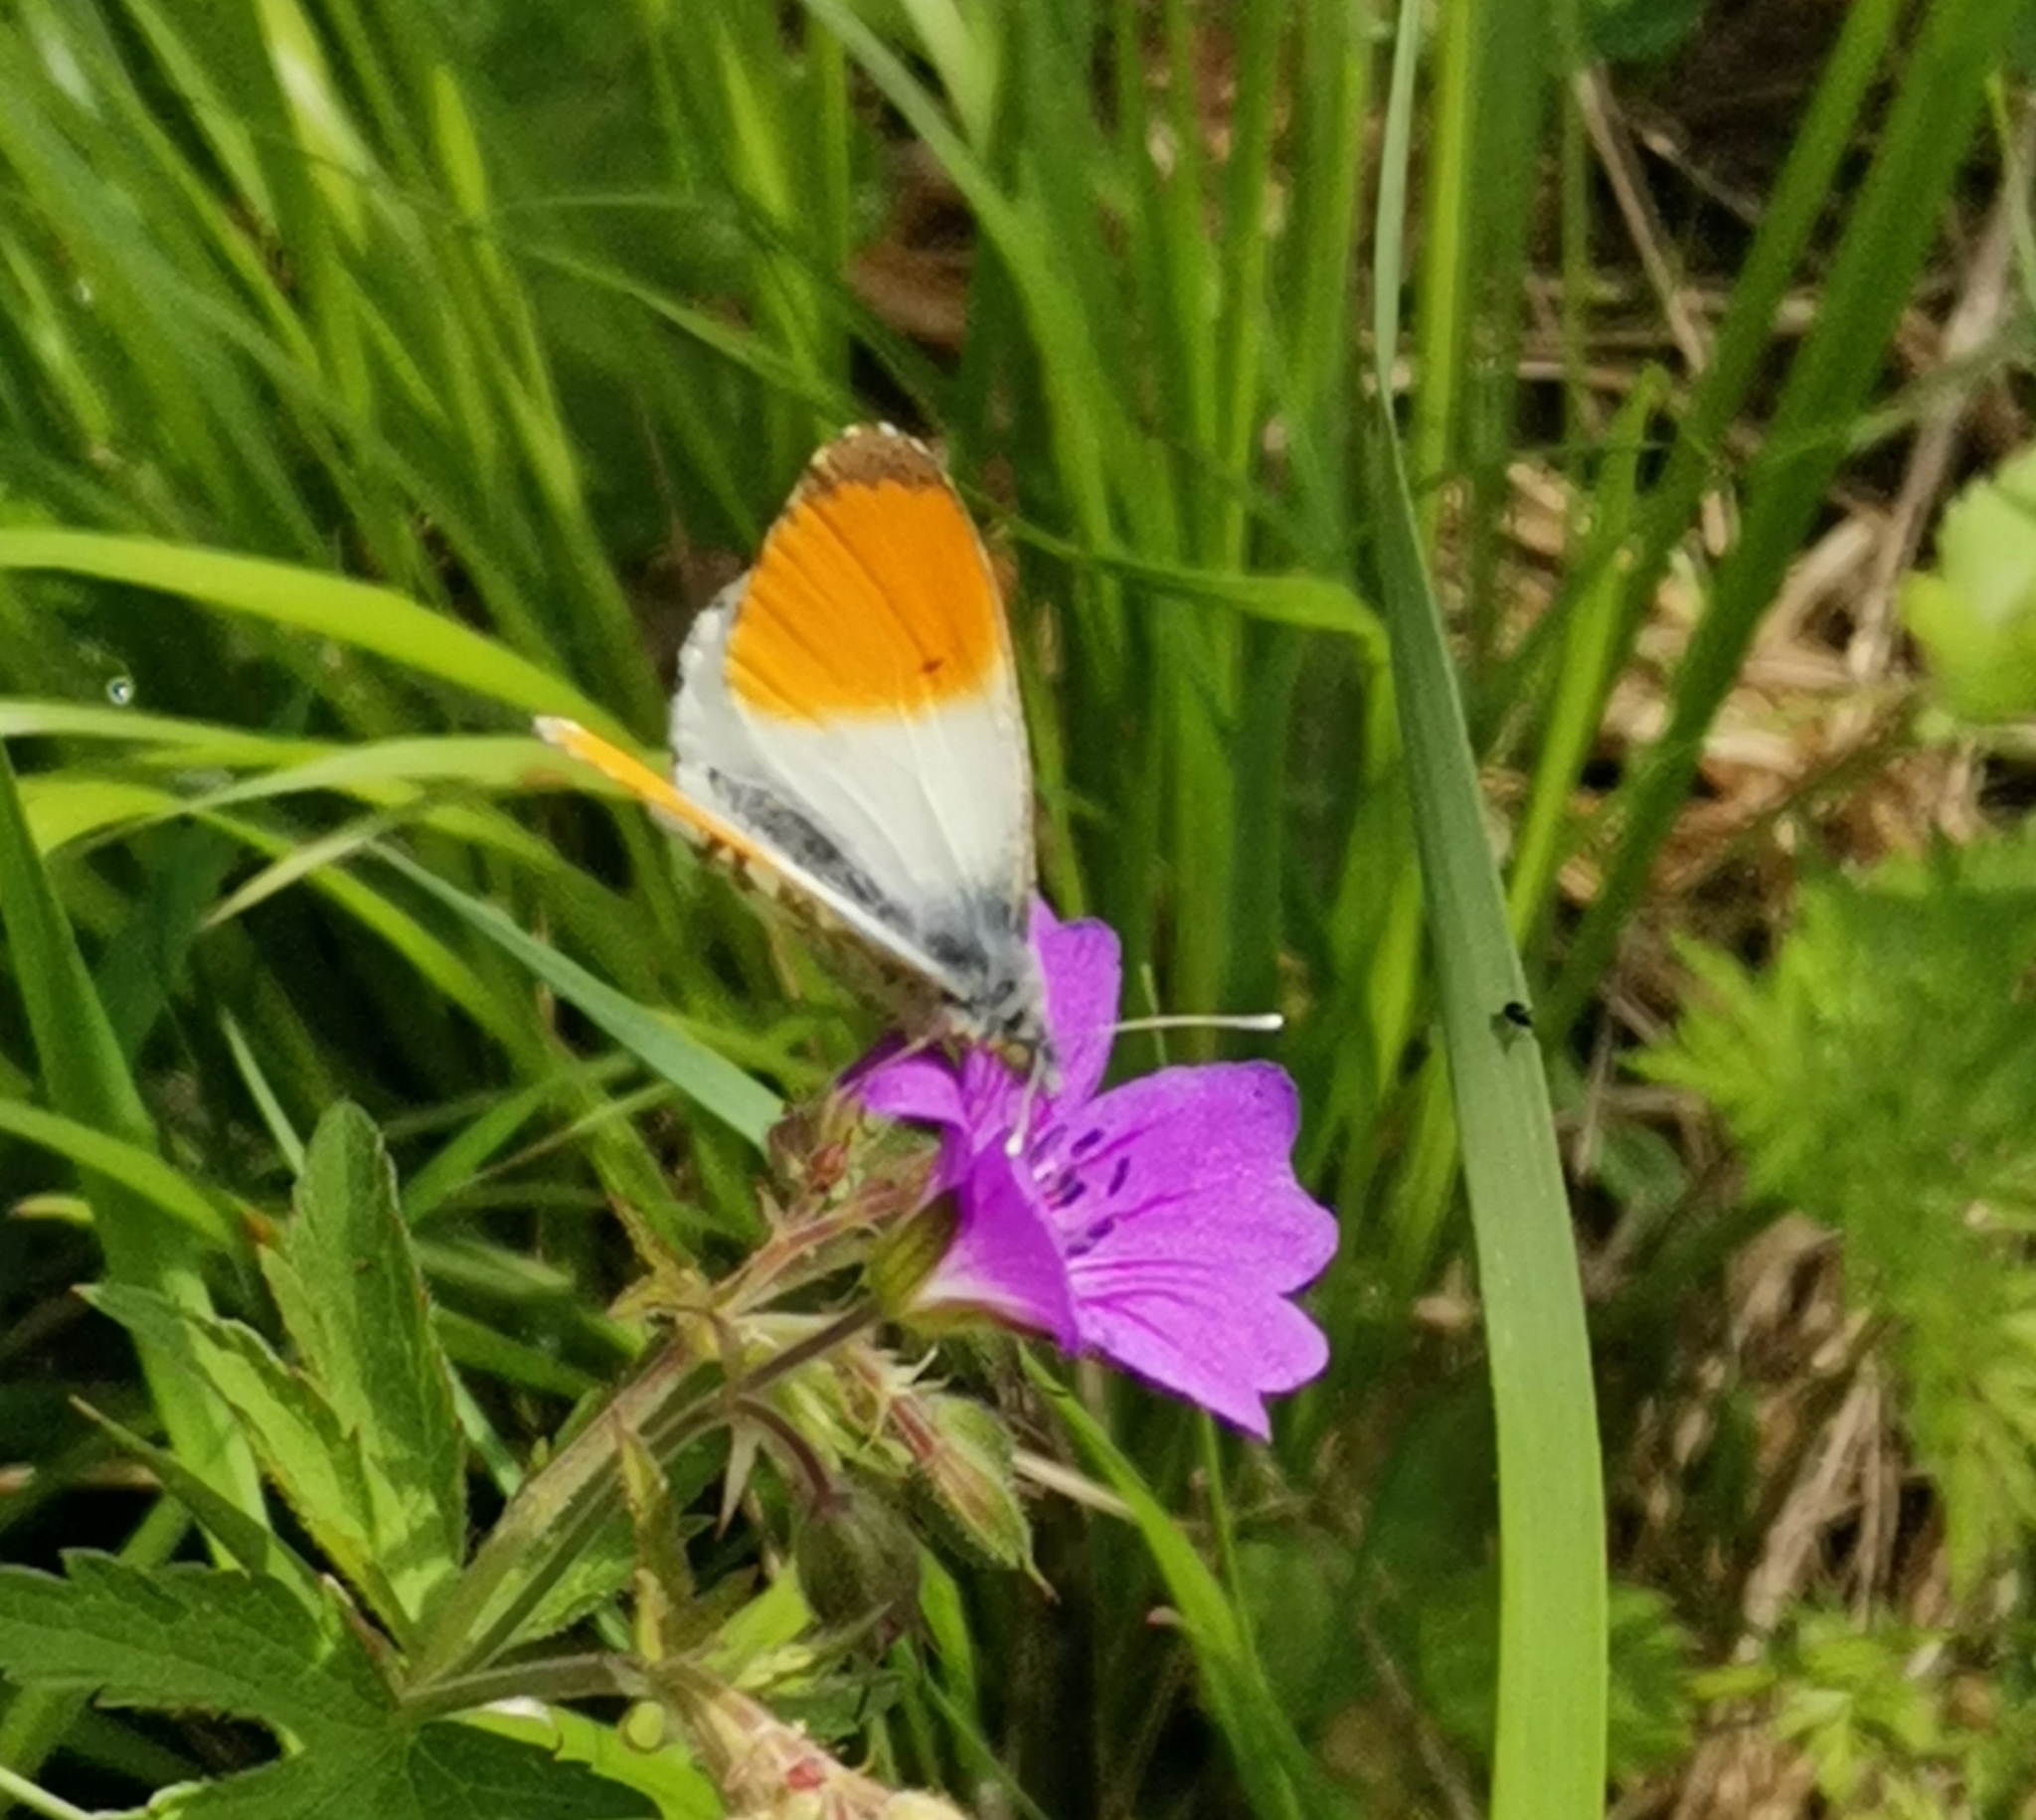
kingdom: Animalia
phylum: Arthropoda
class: Insecta
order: Lepidoptera
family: Pieridae
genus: Anthocharis
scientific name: Anthocharis cardamines
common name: Orange-tip
